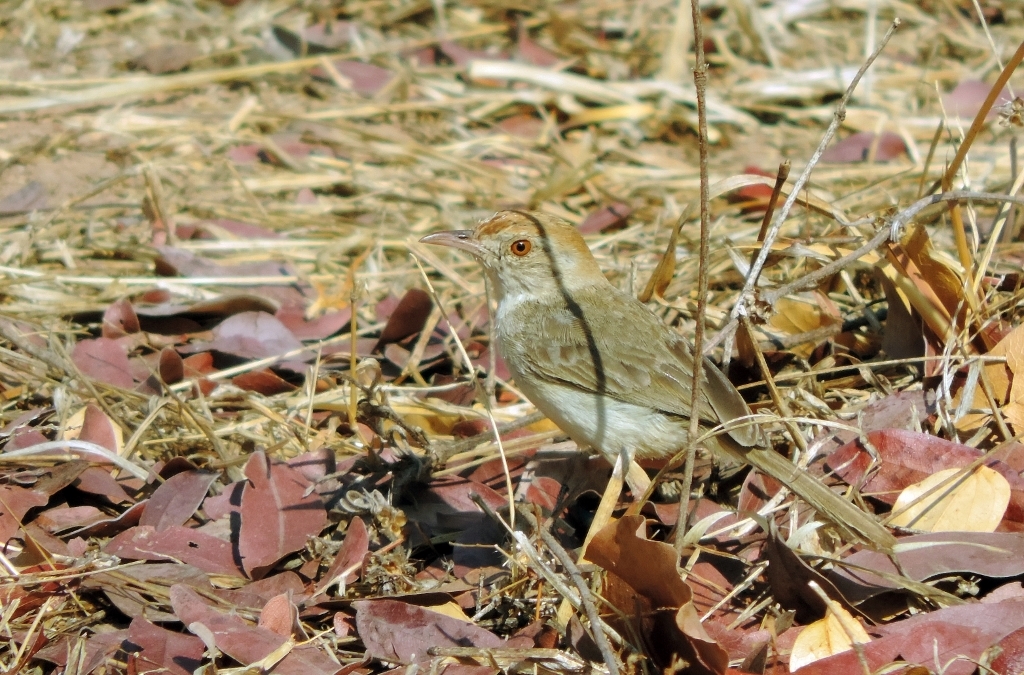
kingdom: Animalia
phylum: Chordata
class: Aves
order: Passeriformes
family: Cisticolidae
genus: Cisticola
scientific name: Cisticola fulvicapilla
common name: Neddicky
